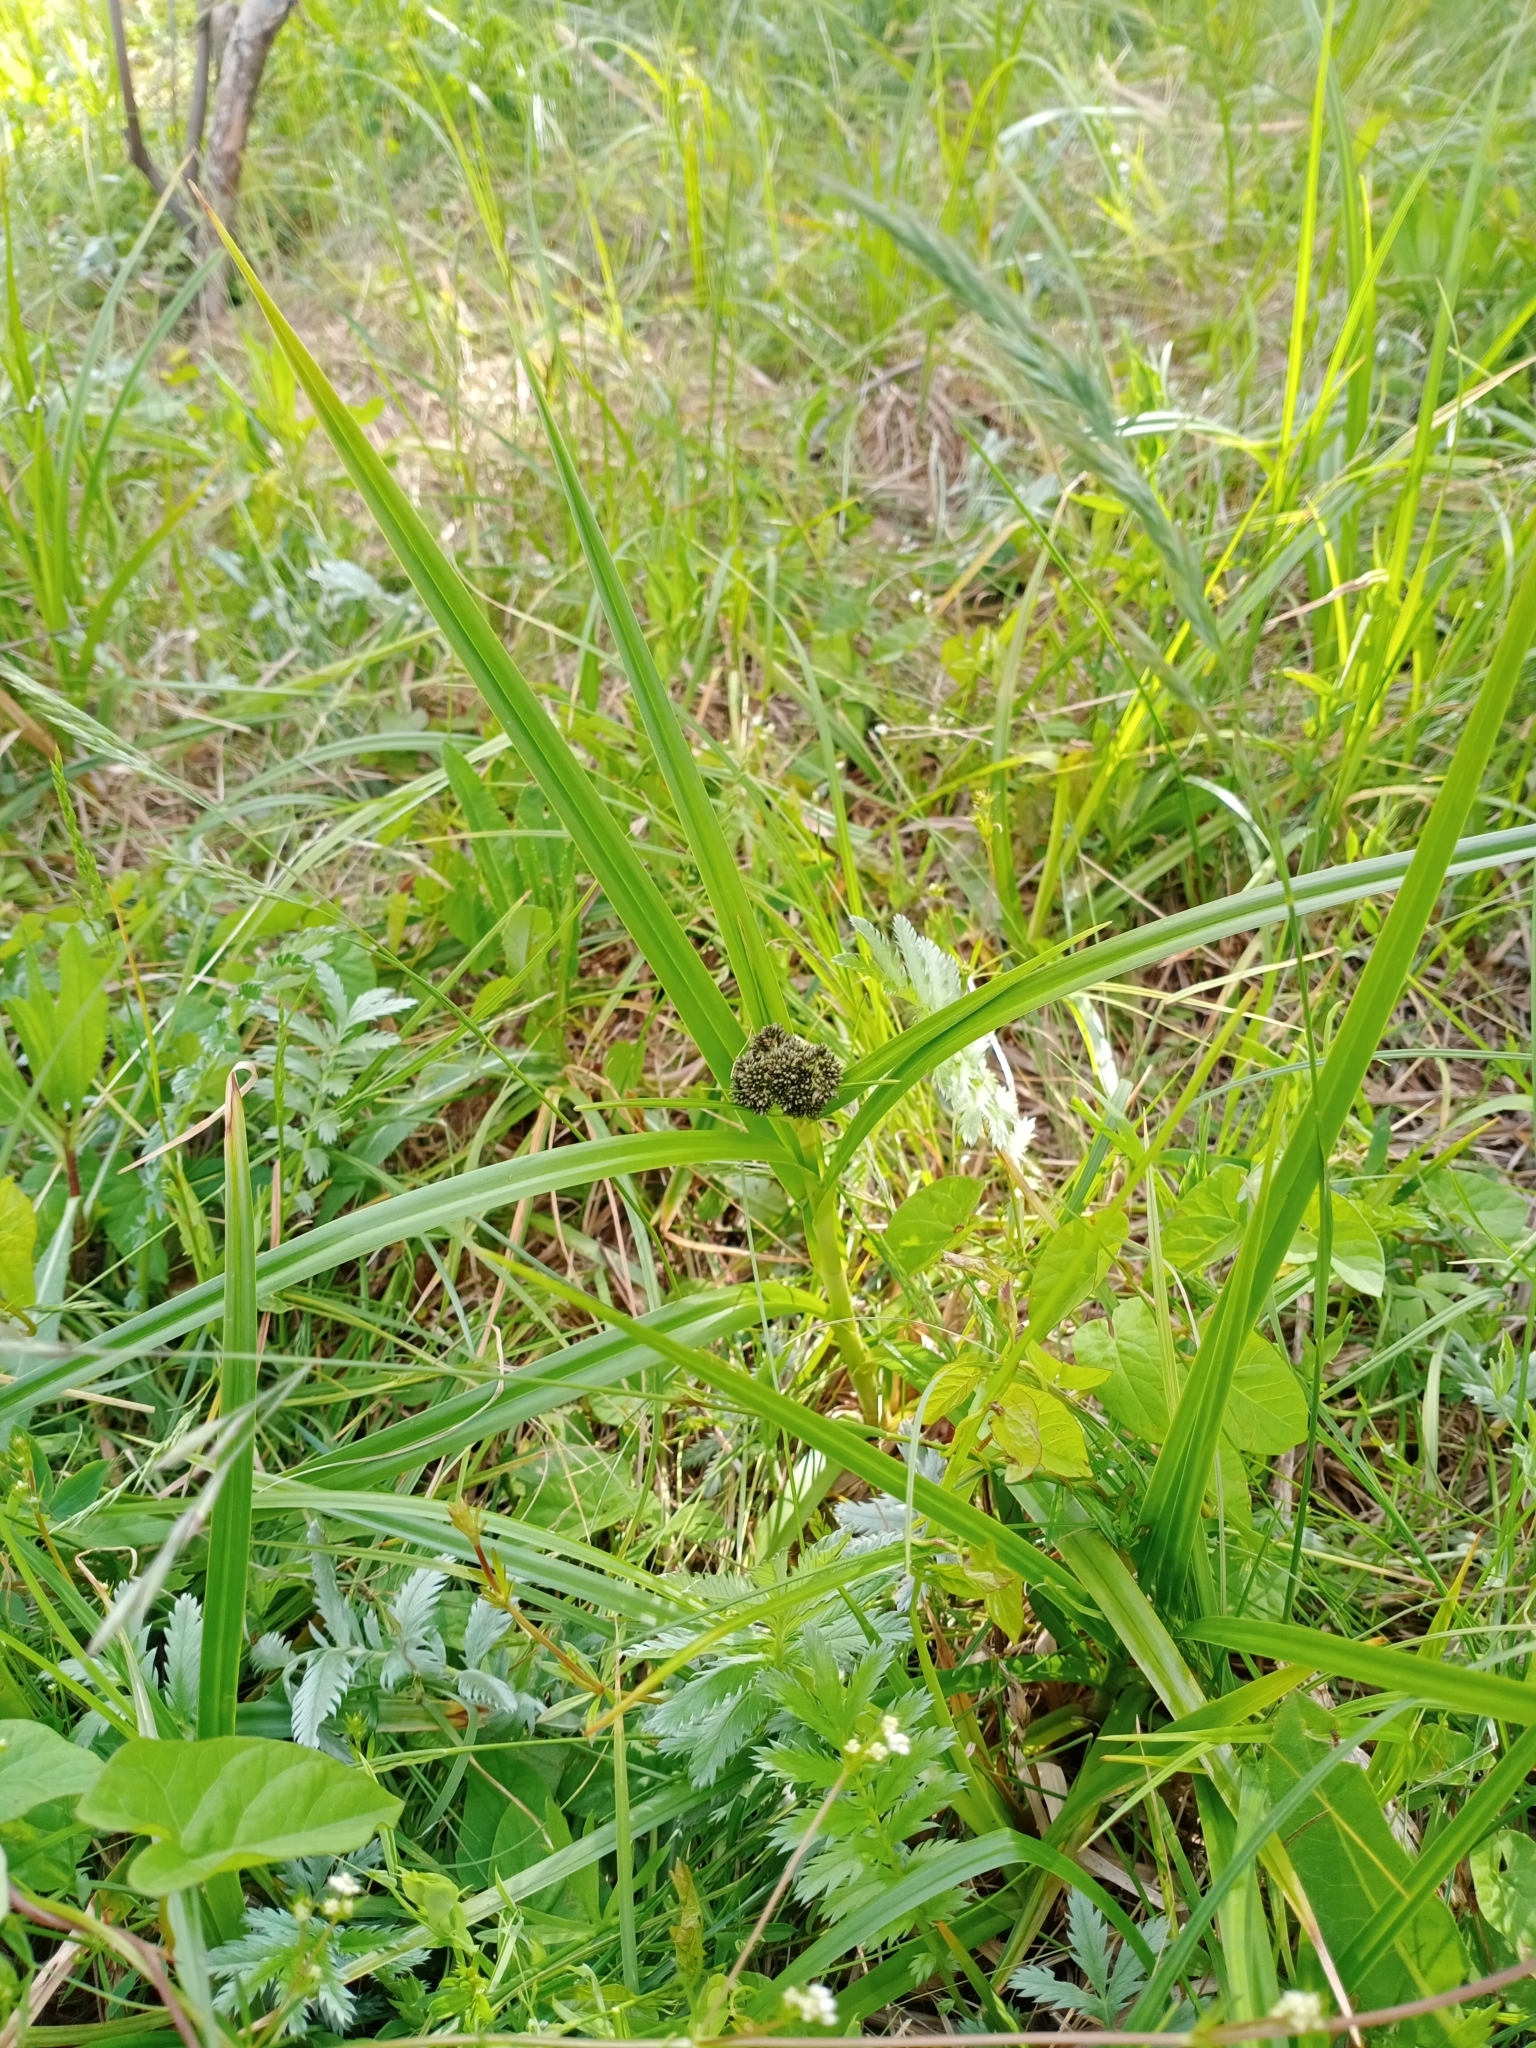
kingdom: Plantae
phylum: Tracheophyta
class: Liliopsida
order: Poales
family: Cyperaceae
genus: Scirpus
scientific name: Scirpus sylvaticus
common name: Wood club-rush
